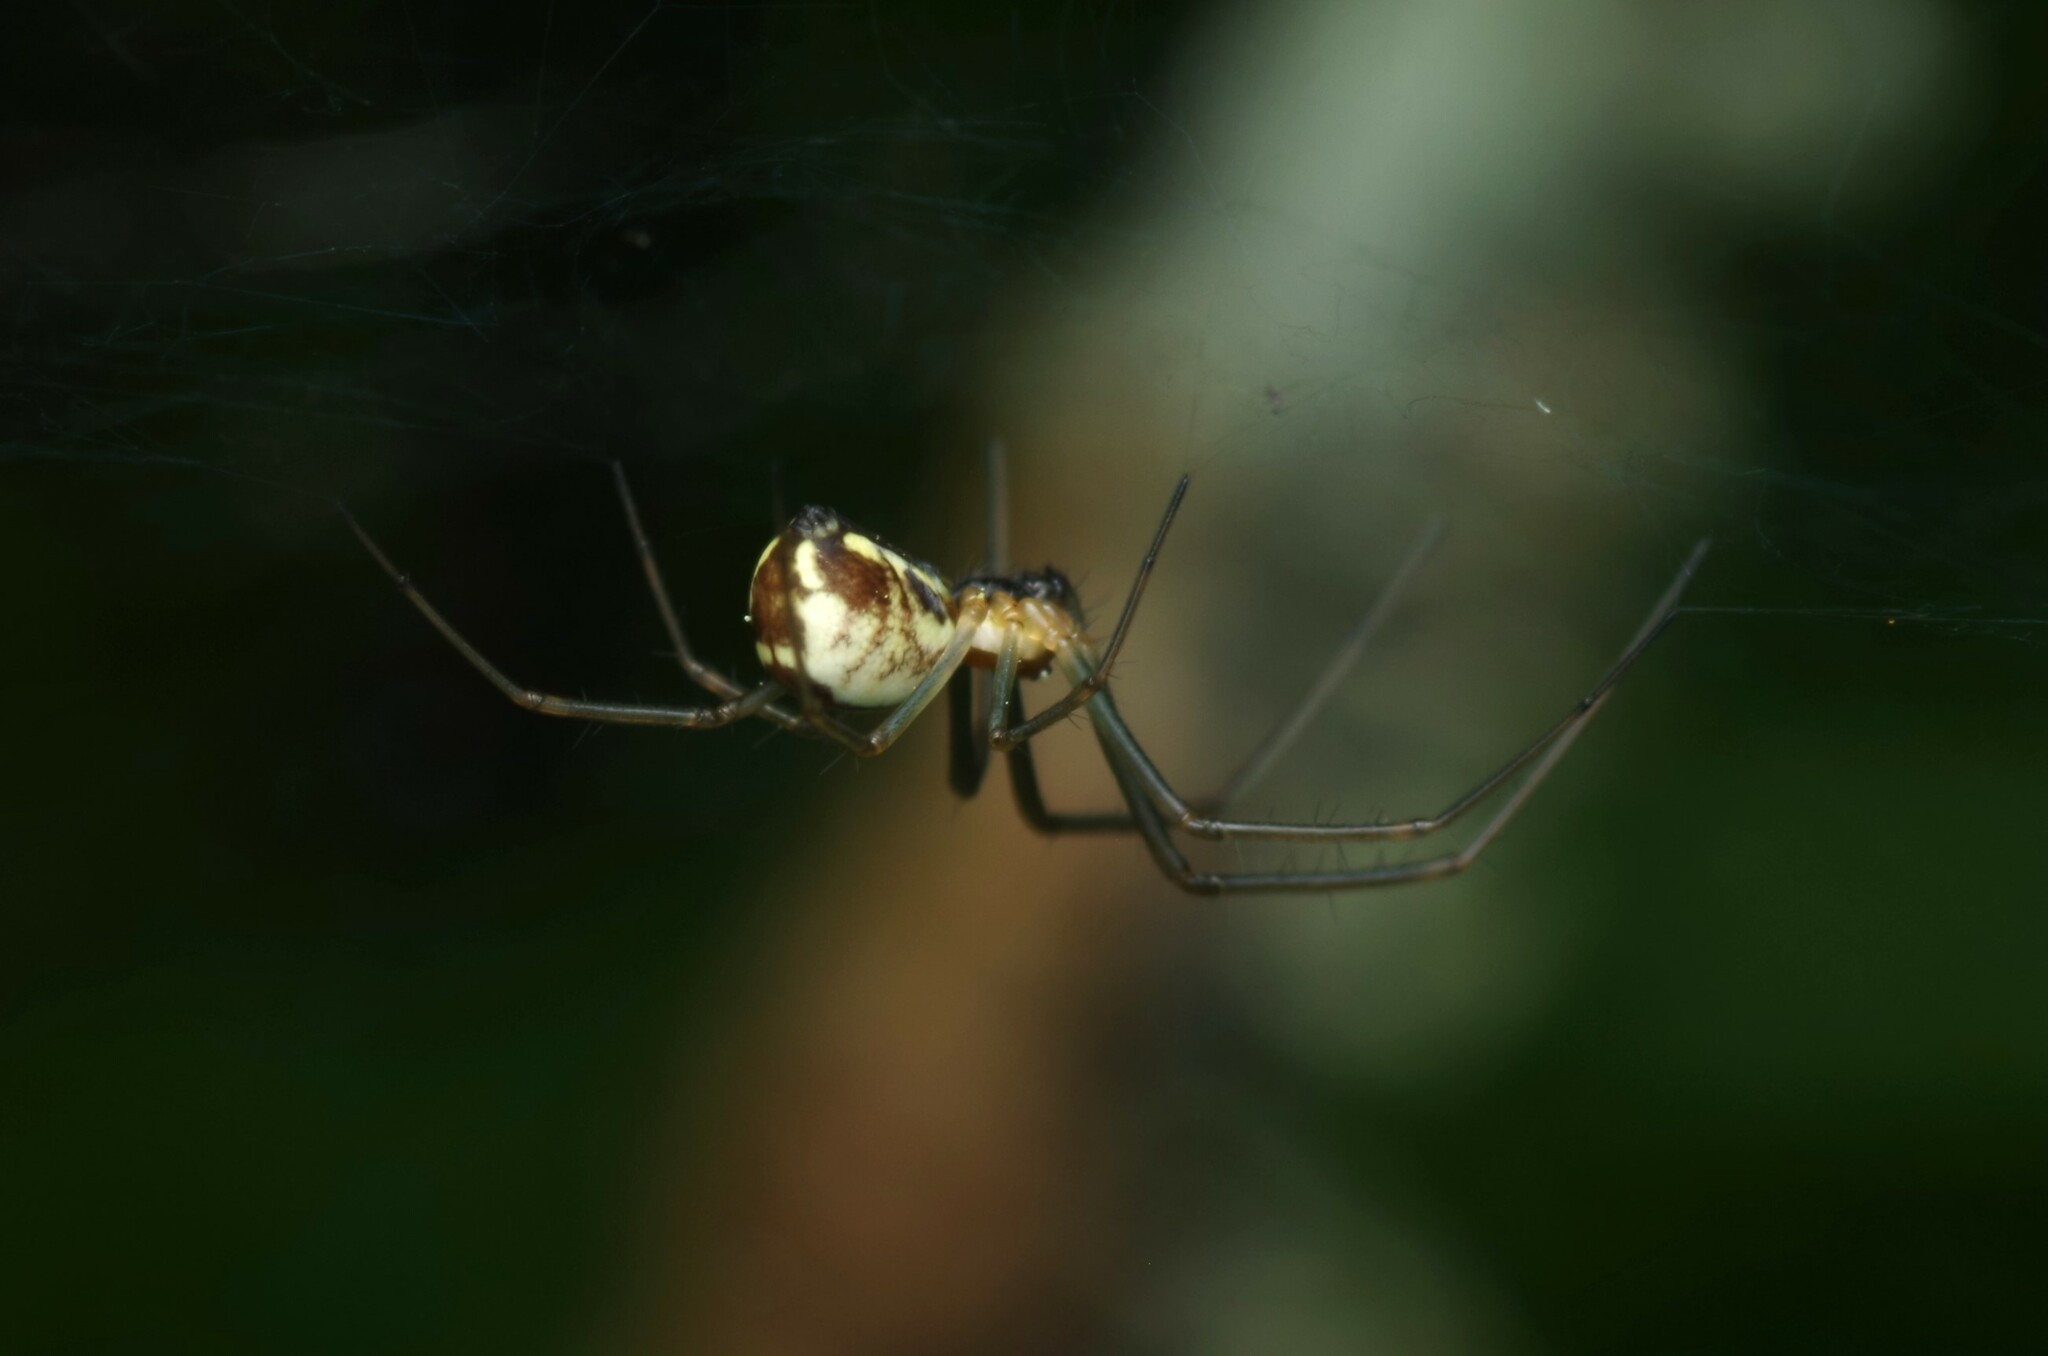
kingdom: Animalia
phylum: Arthropoda
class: Arachnida
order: Araneae
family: Linyphiidae
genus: Neriene
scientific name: Neriene radiata
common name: Filmy dome spider
